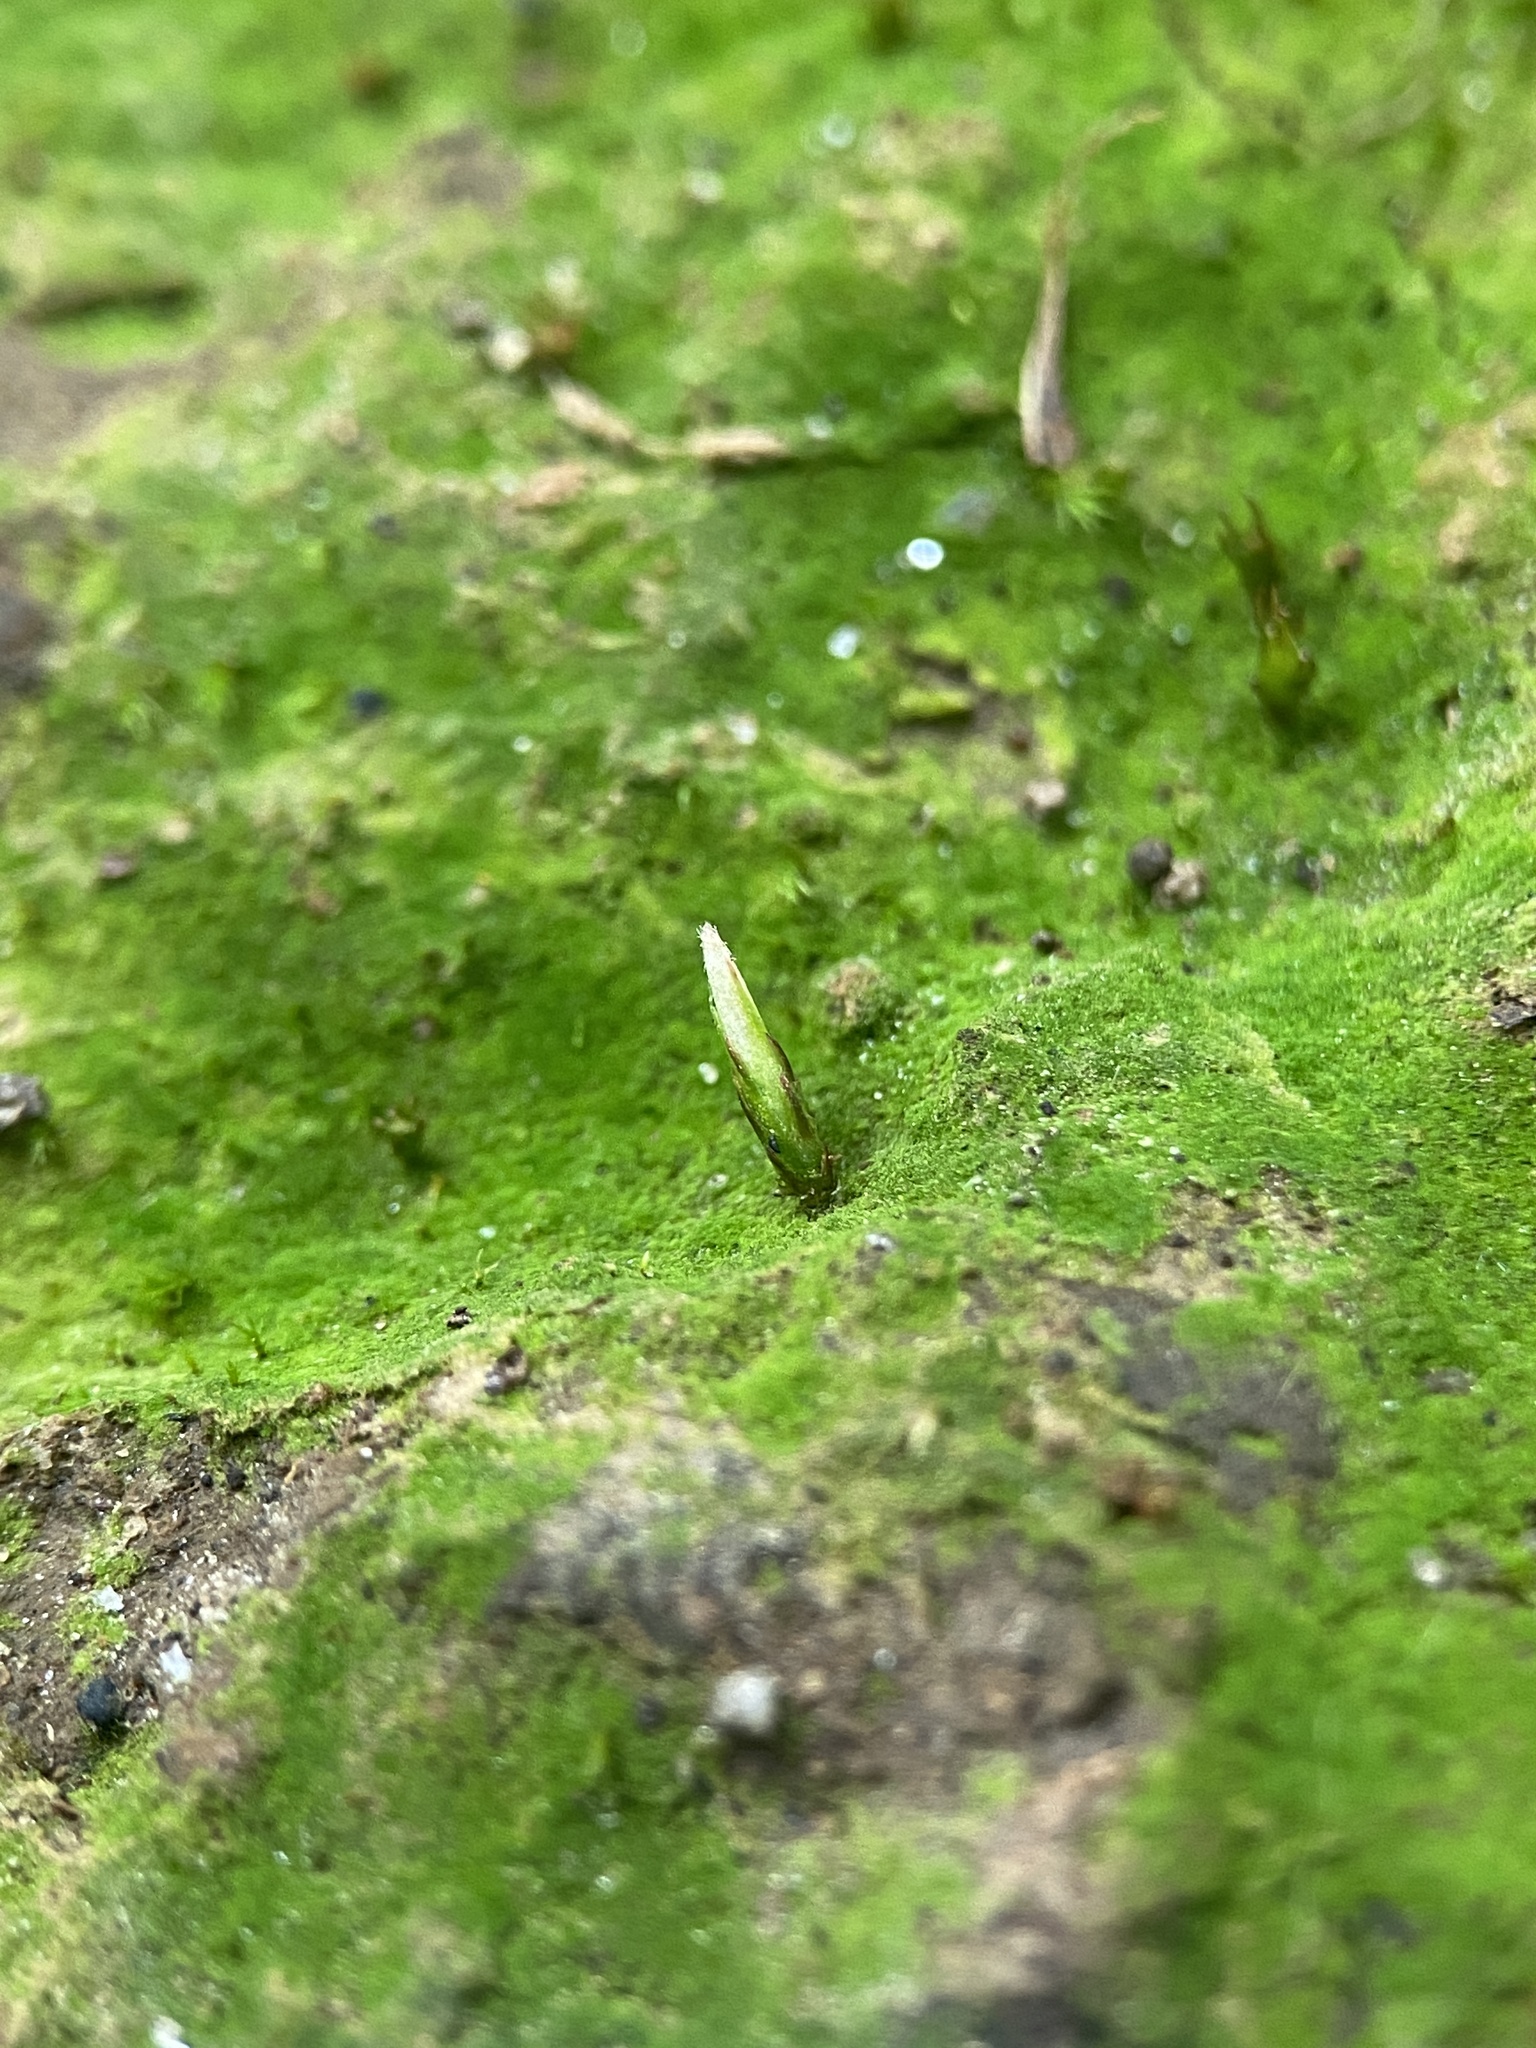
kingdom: Plantae
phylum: Bryophyta
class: Polytrichopsida
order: Polytrichales
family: Polytrichaceae
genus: Pogonatum
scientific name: Pogonatum pensilvanicum
